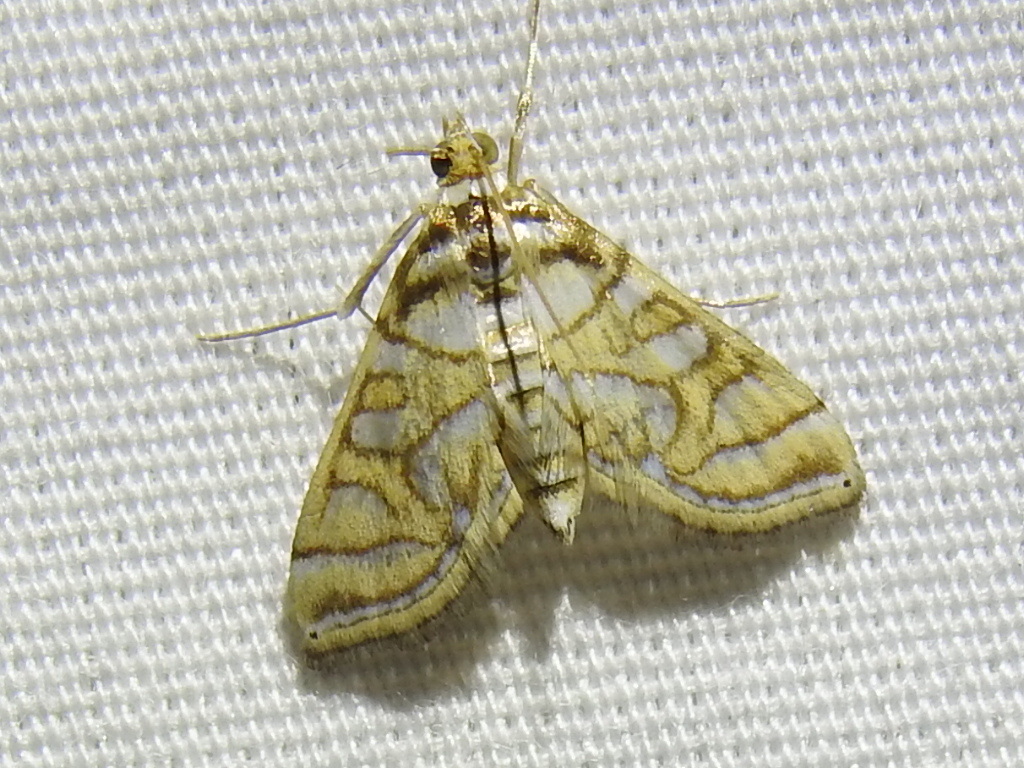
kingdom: Animalia
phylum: Arthropoda
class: Insecta
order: Lepidoptera
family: Crambidae
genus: Pseudopyrausta
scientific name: Pseudopyrausta santatalis
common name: Moth
